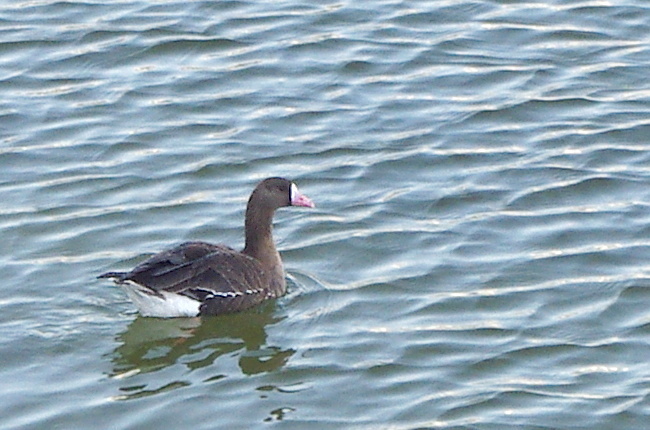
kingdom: Animalia
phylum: Chordata
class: Aves
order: Anseriformes
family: Anatidae
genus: Anser
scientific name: Anser albifrons
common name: Greater white-fronted goose
